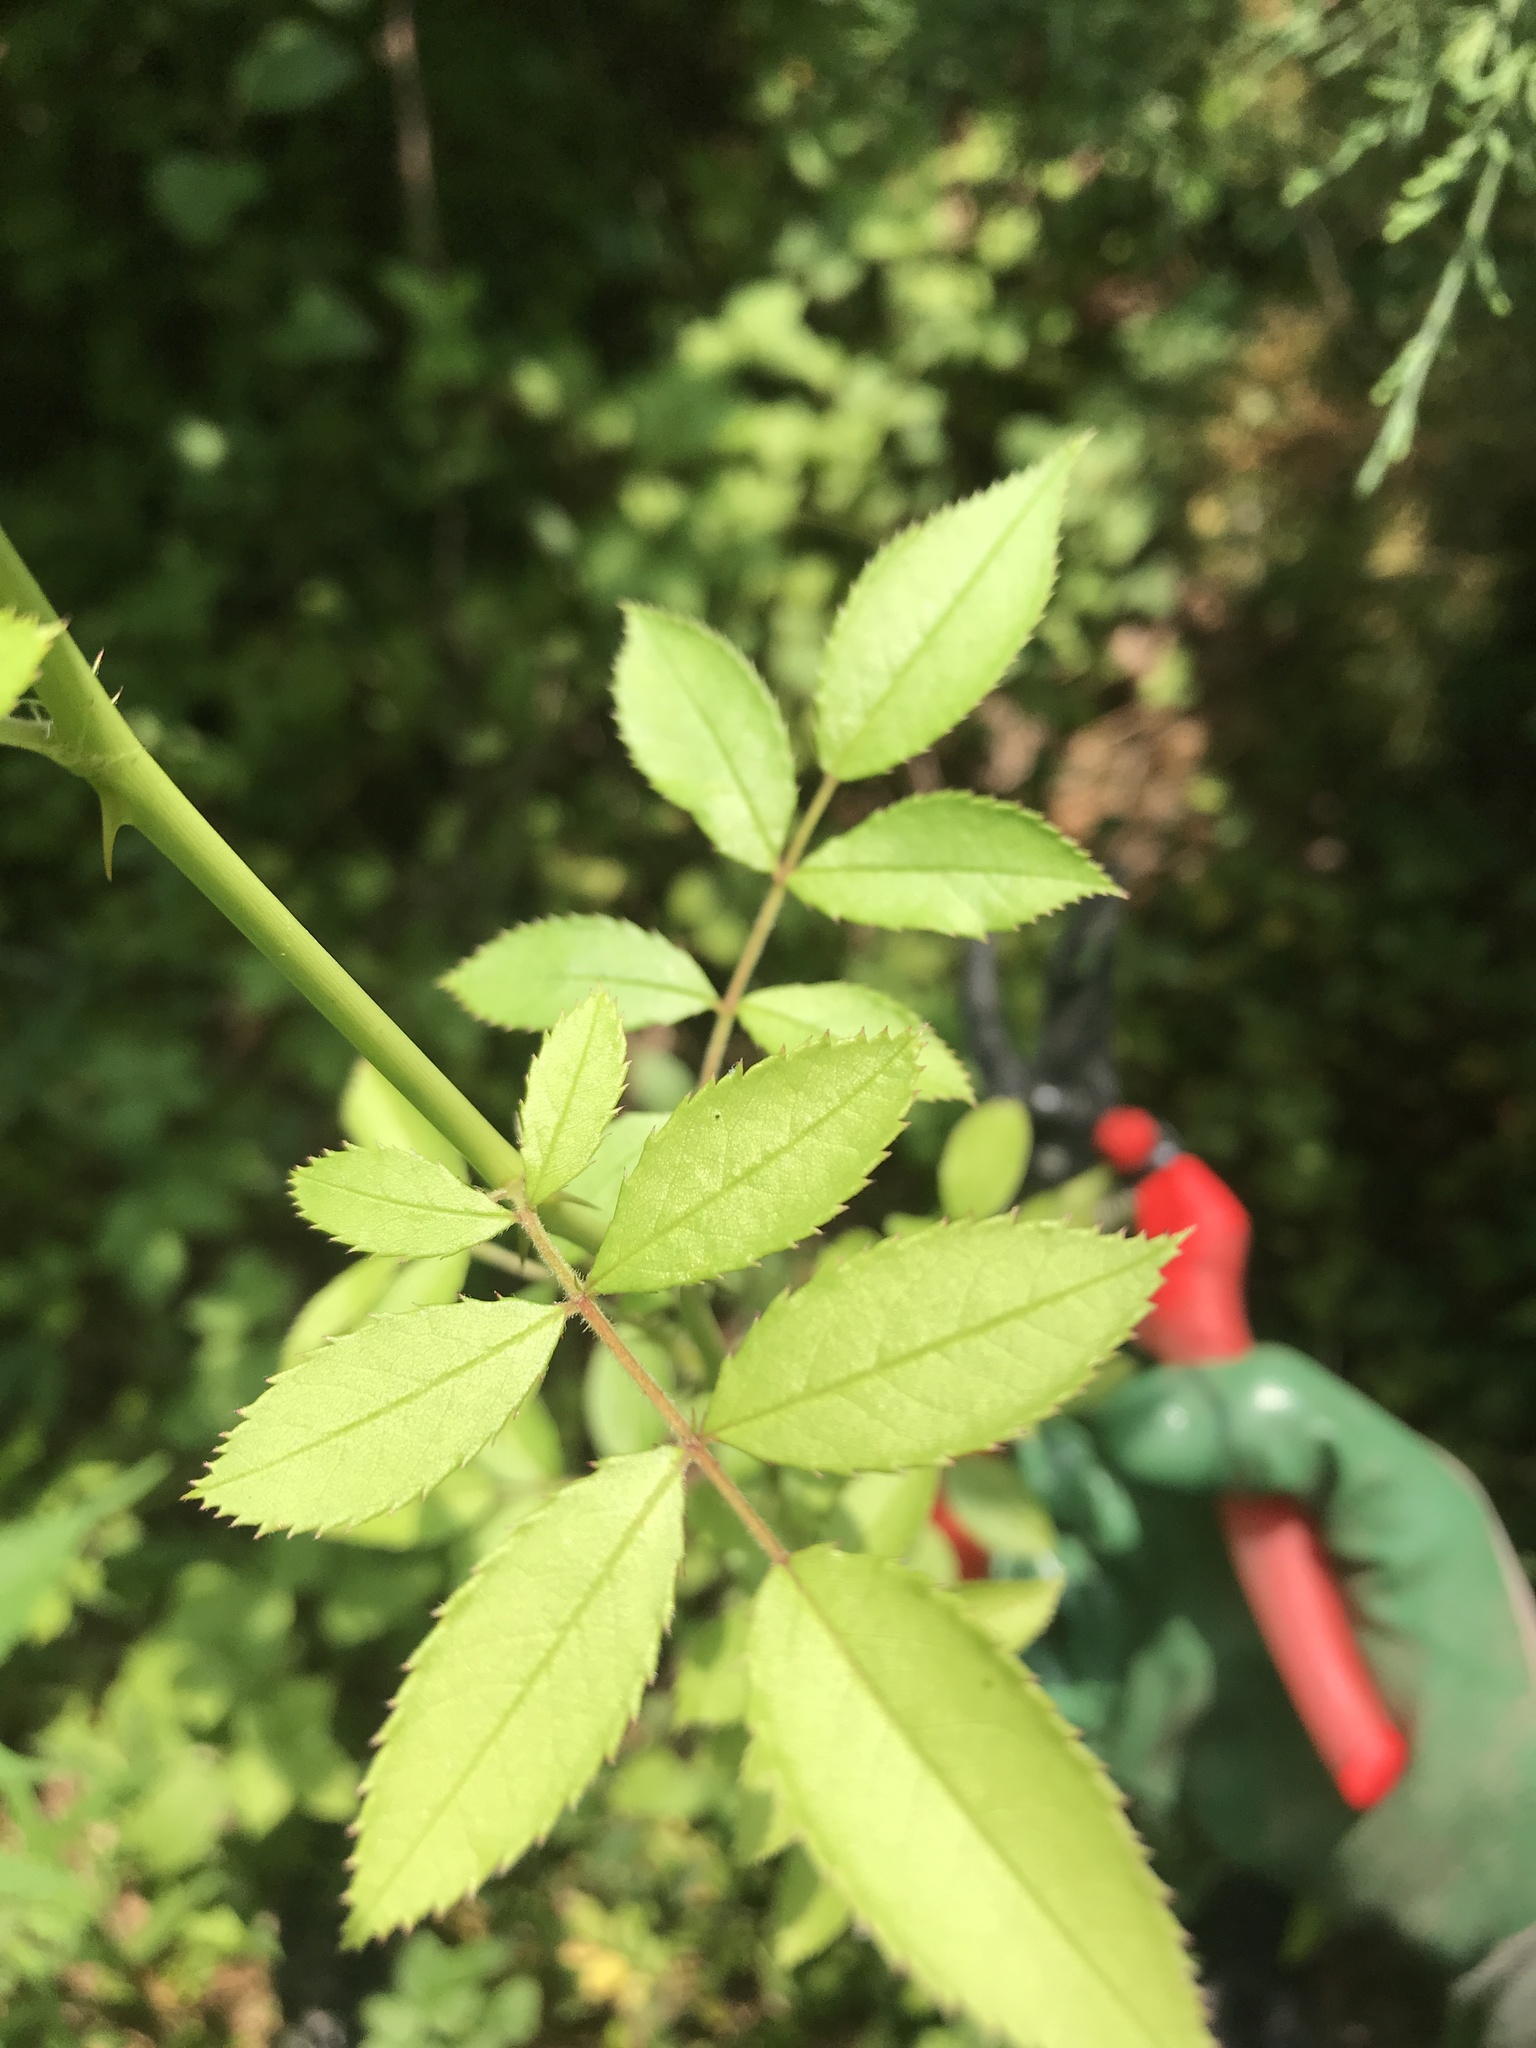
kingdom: Plantae
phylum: Tracheophyta
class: Magnoliopsida
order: Rosales
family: Rosaceae
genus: Rosa
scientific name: Rosa multiflora
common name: Multiflora rose
